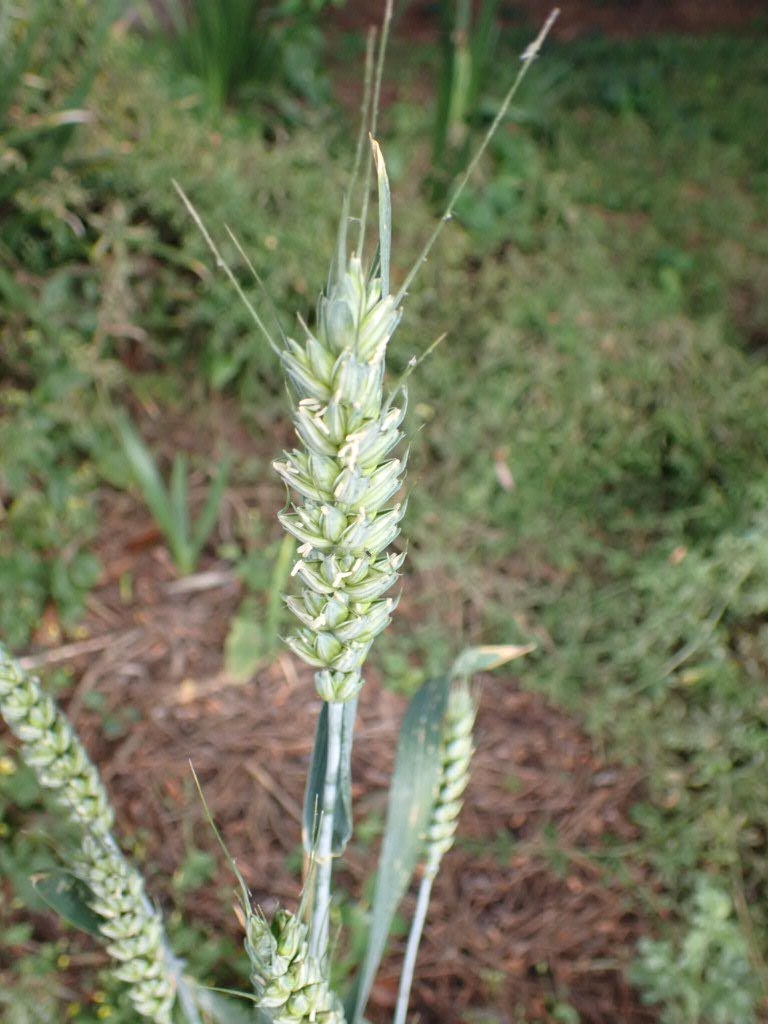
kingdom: Plantae
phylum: Tracheophyta
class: Liliopsida
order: Poales
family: Poaceae
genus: Triticum
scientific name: Triticum aestivum
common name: Common wheat
